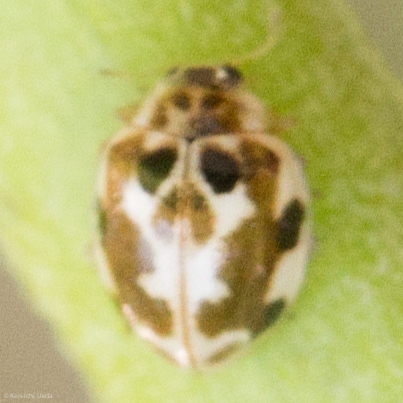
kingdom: Animalia
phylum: Arthropoda
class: Insecta
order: Coleoptera
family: Coccinellidae
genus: Psyllobora
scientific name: Psyllobora vigintimaculata
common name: Ladybird beetle
